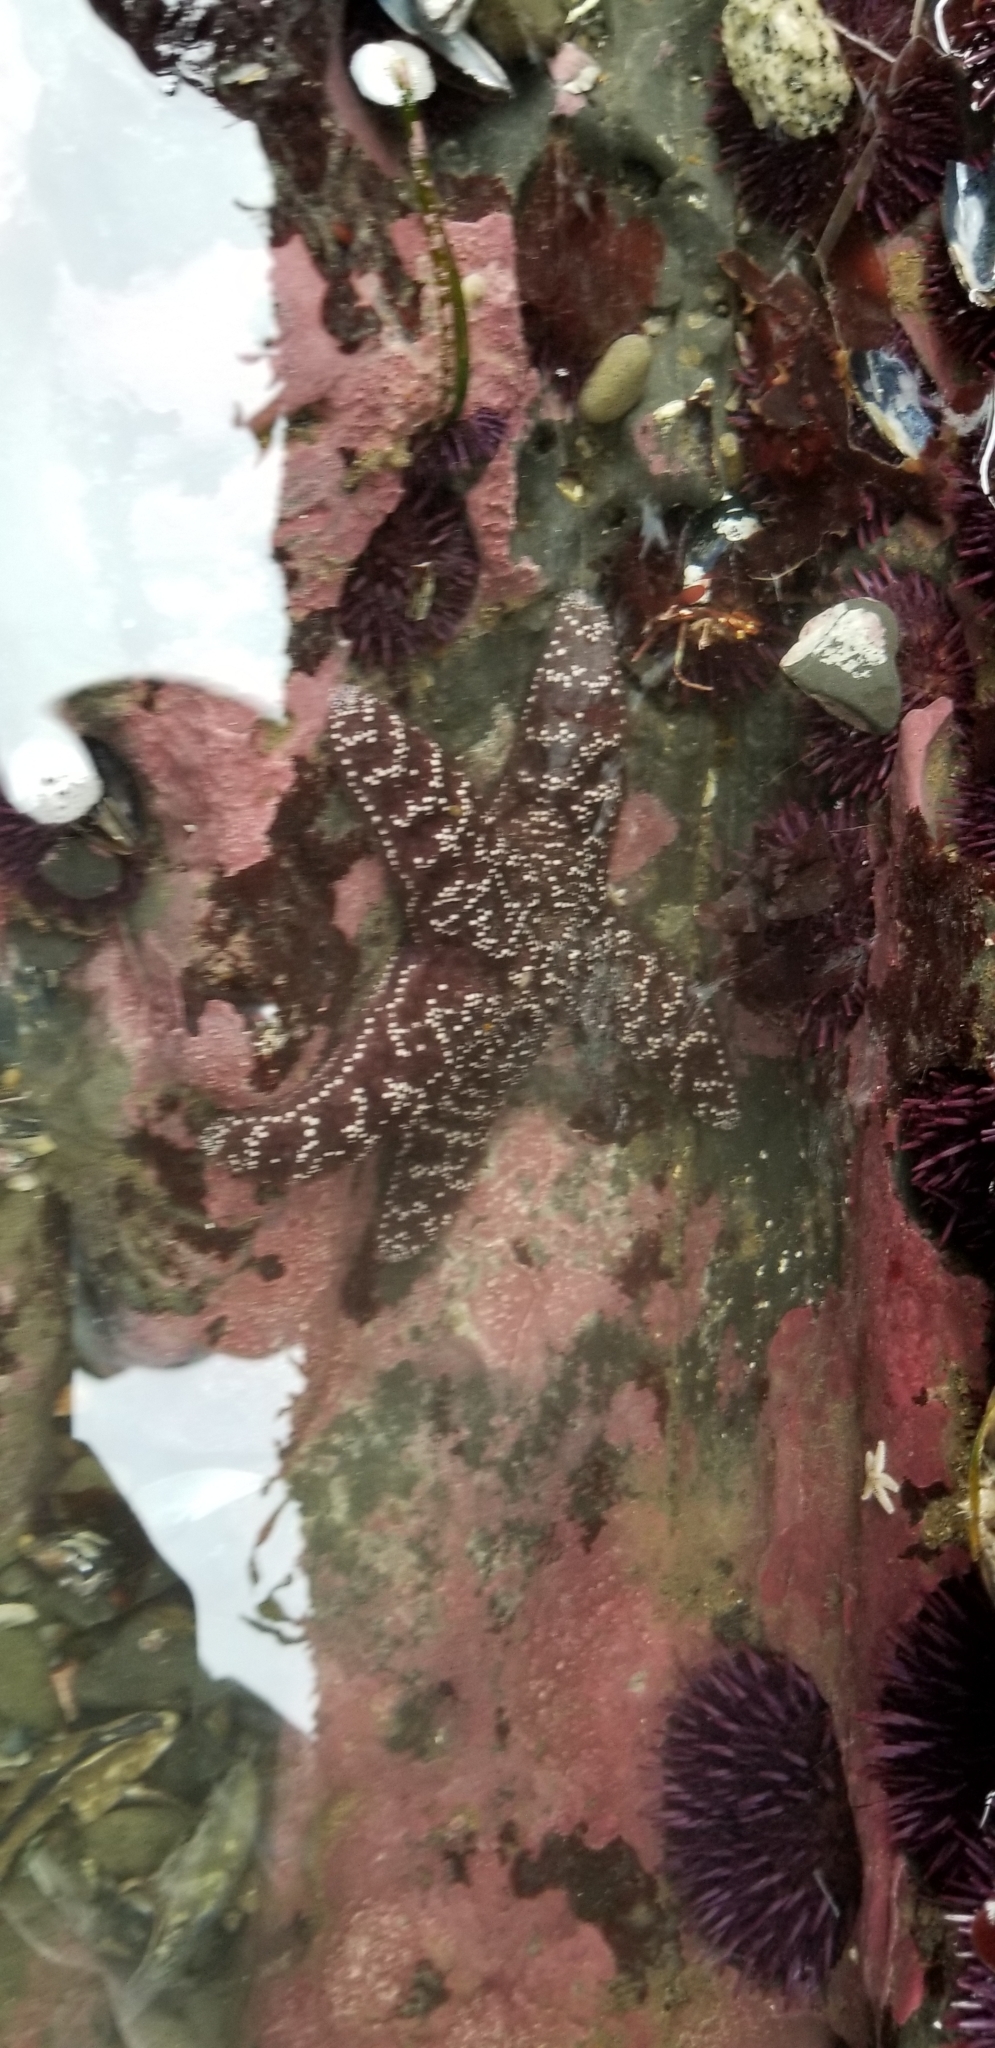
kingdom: Animalia
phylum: Echinodermata
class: Asteroidea
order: Forcipulatida
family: Asteriidae
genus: Pisaster
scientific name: Pisaster ochraceus
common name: Ochre stars
